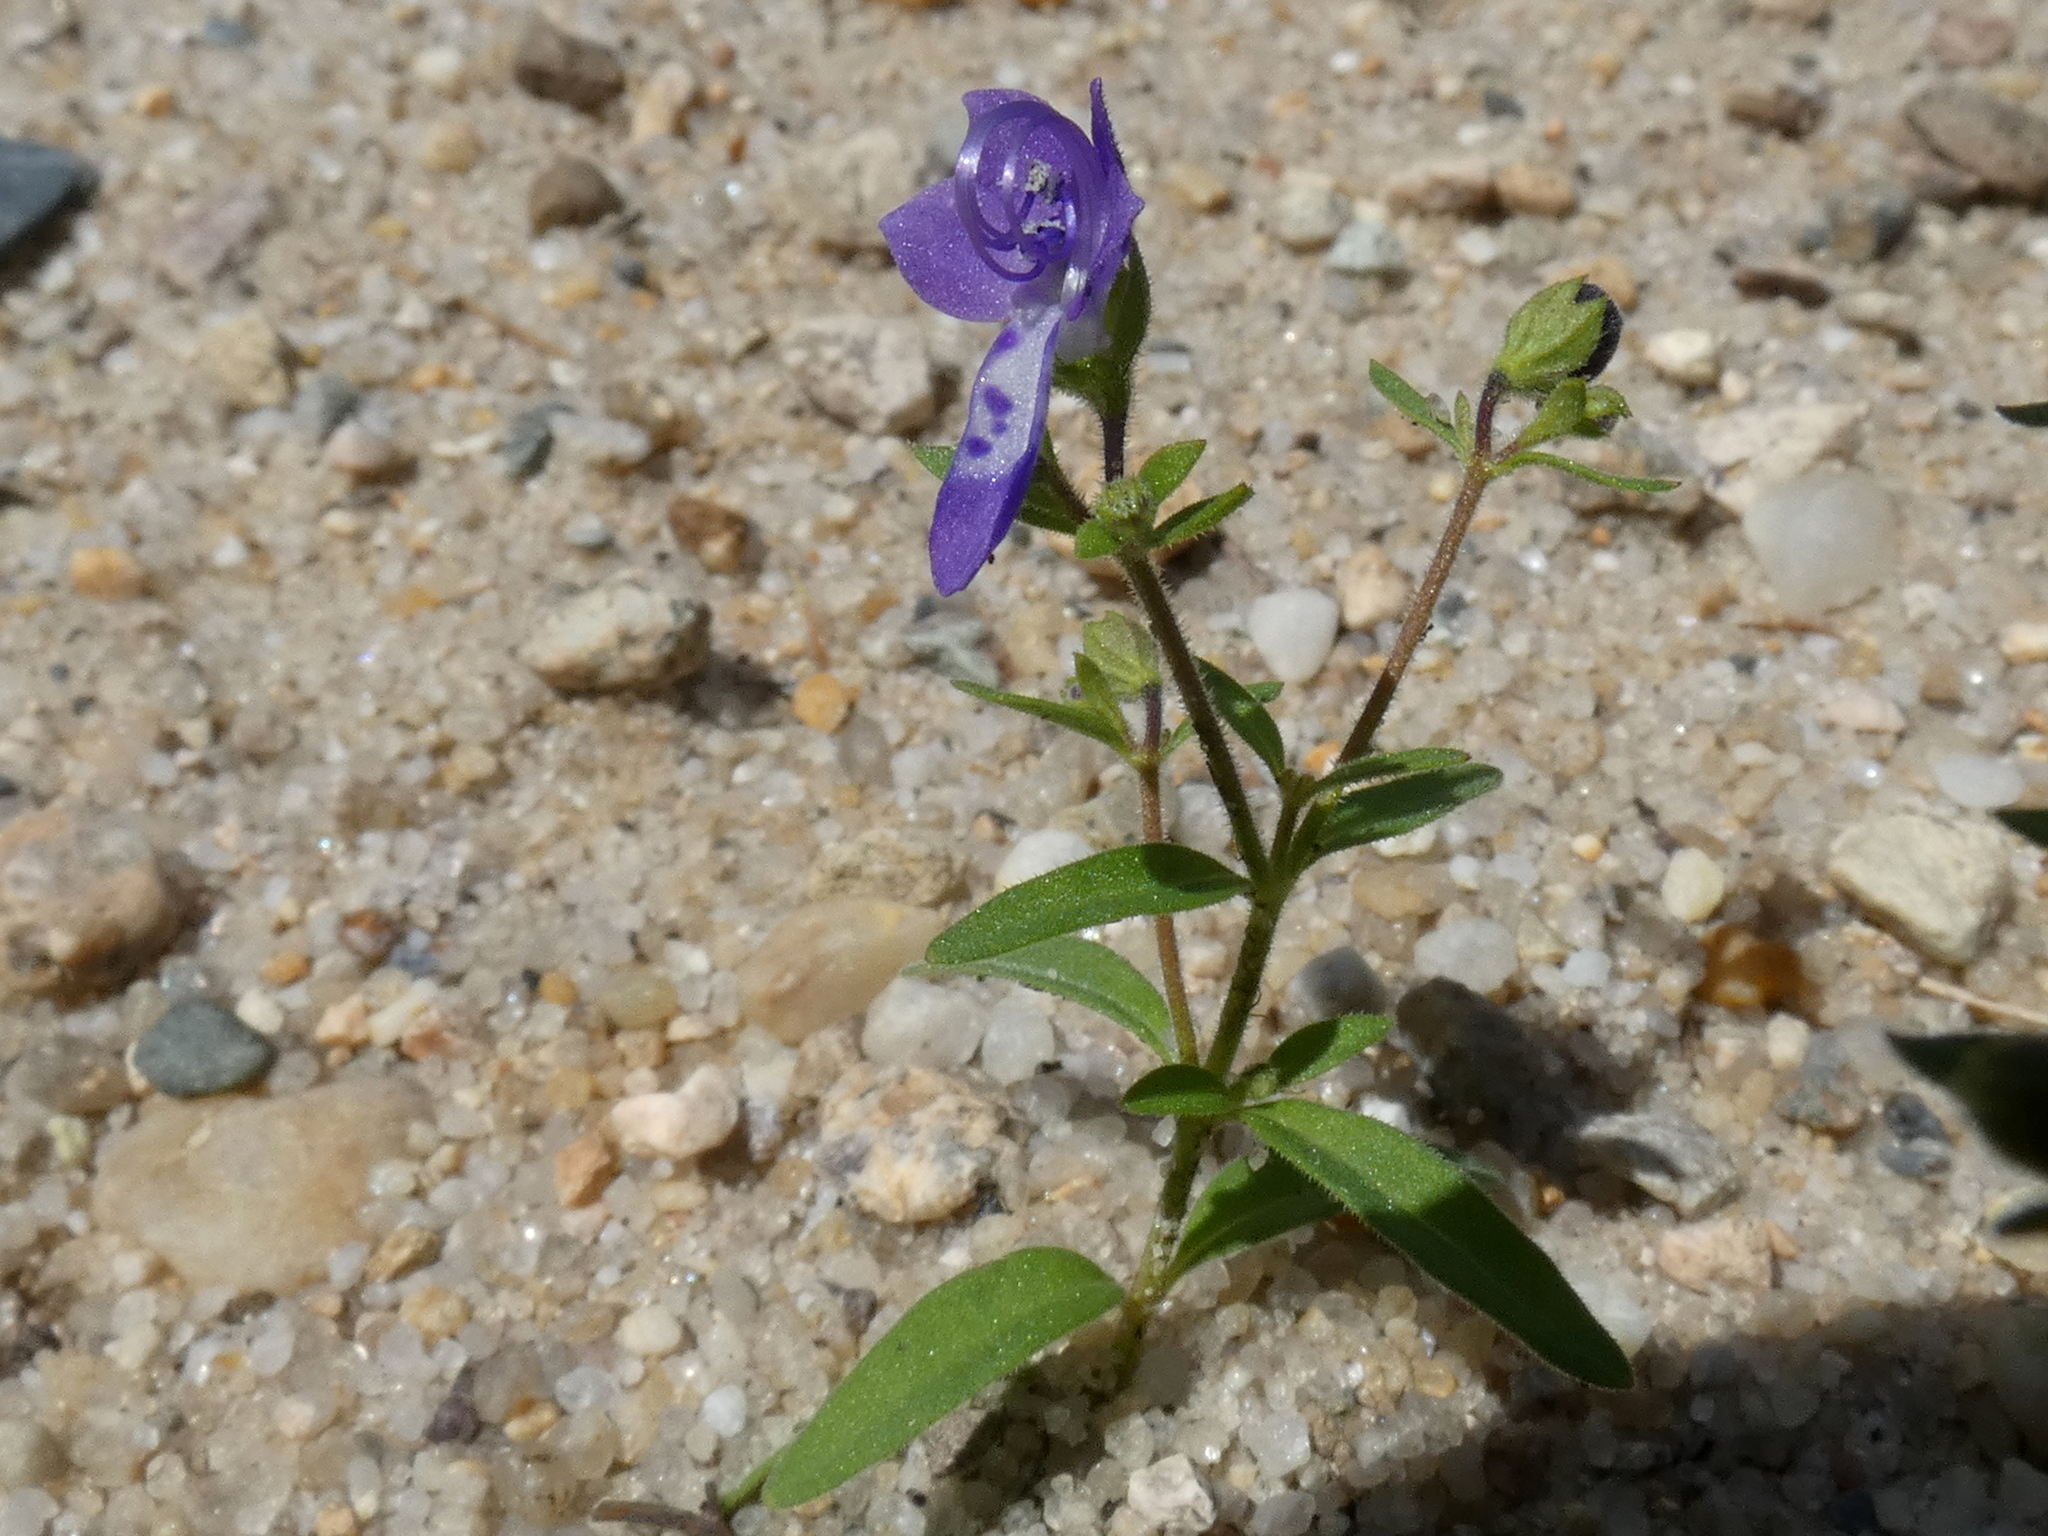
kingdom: Plantae
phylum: Tracheophyta
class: Magnoliopsida
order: Lamiales
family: Lamiaceae
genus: Trichostema
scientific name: Trichostema dichotomum
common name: Bastard pennyroyal
